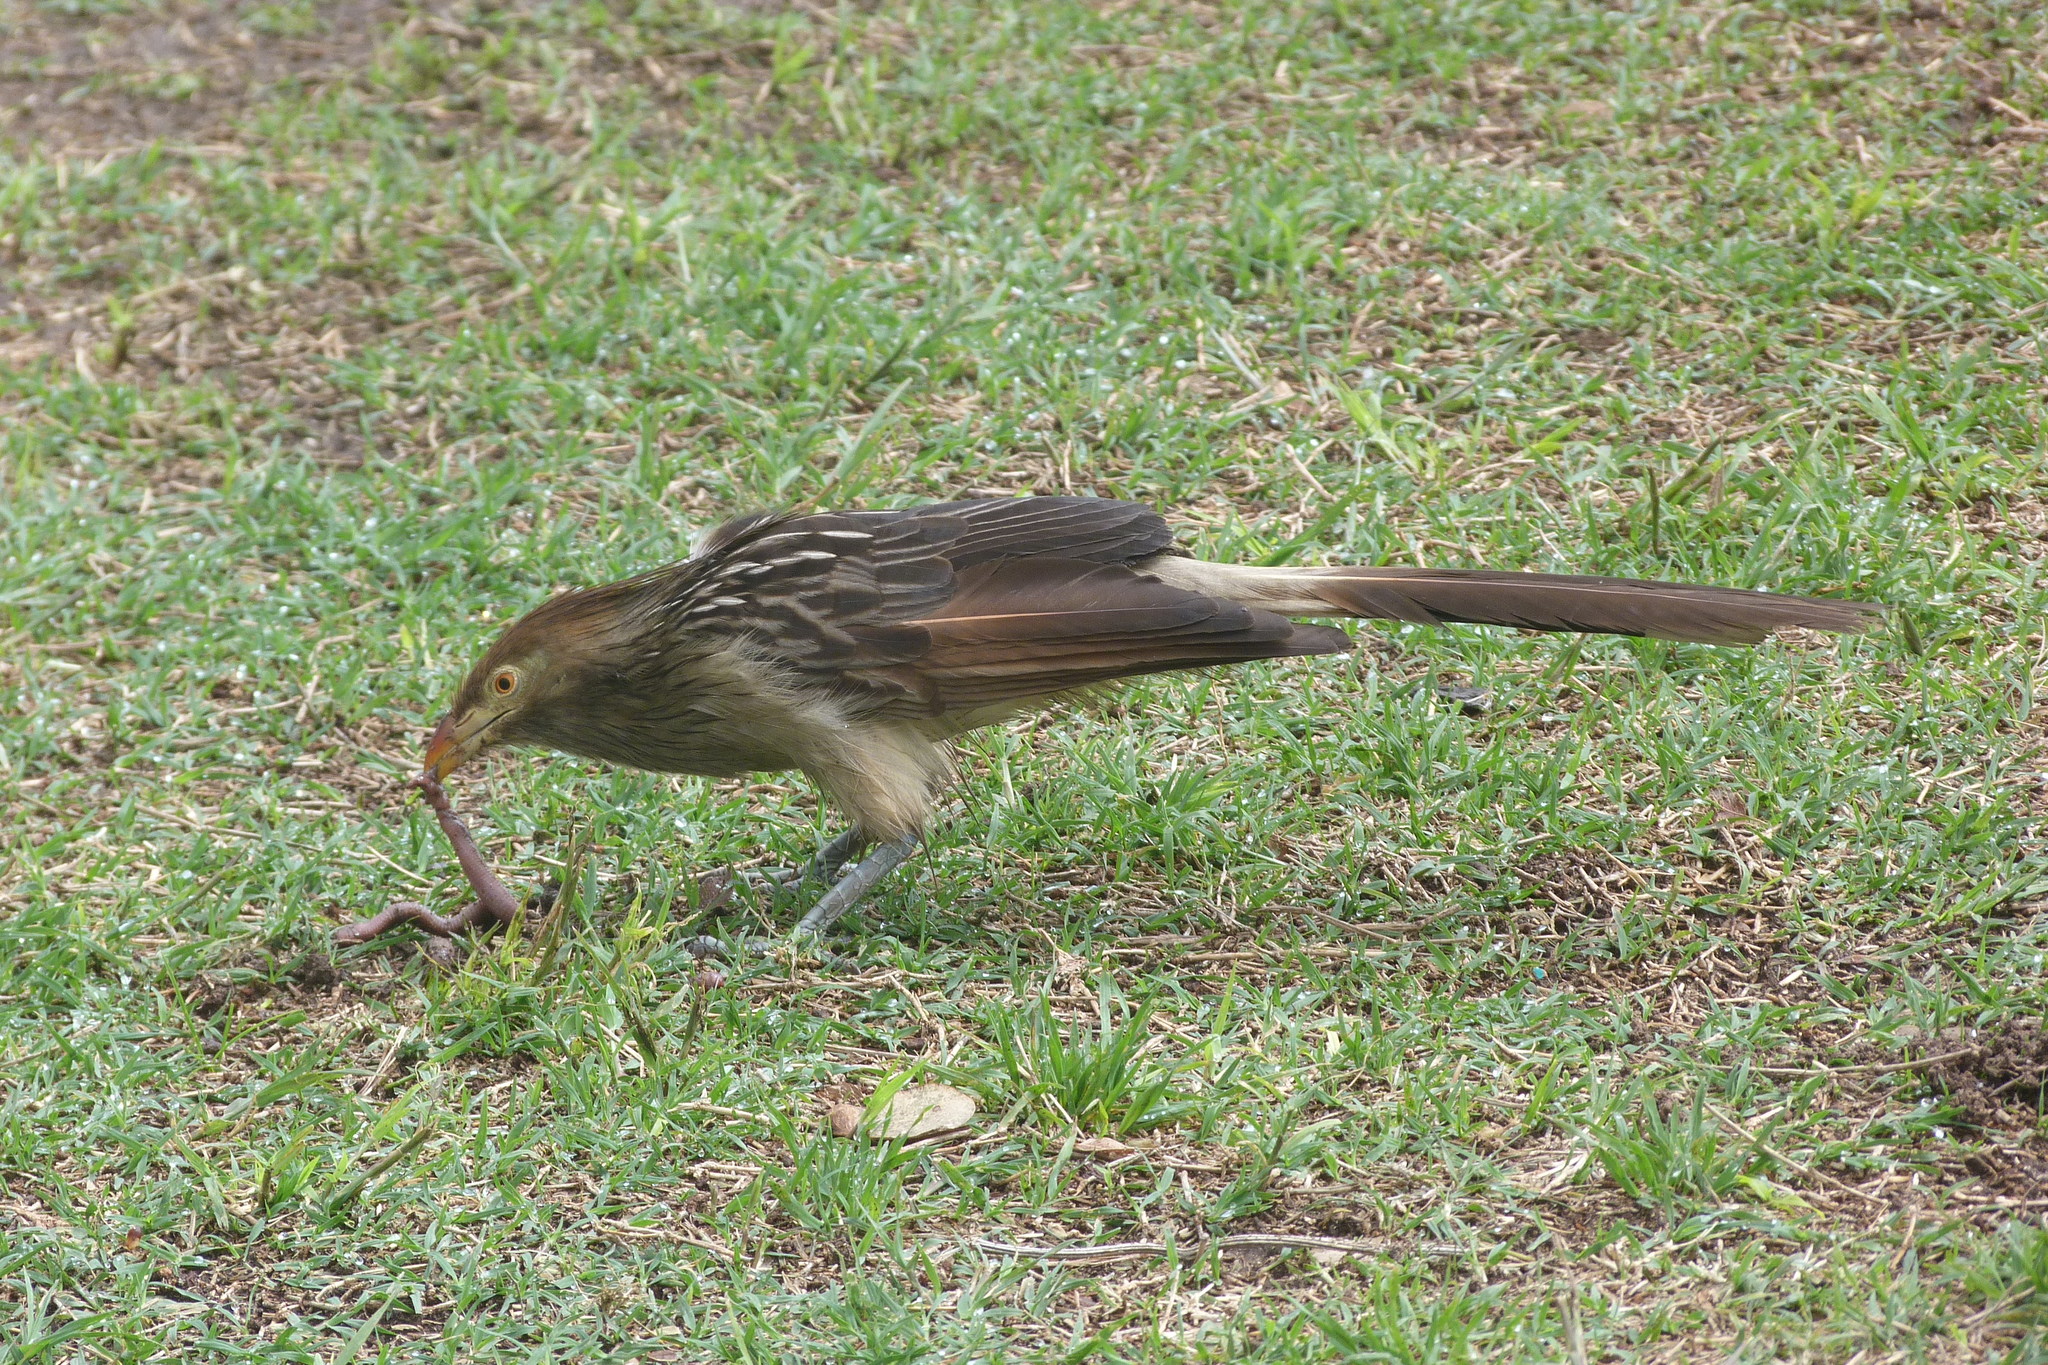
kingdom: Animalia
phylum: Chordata
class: Aves
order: Cuculiformes
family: Cuculidae
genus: Guira
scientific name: Guira guira
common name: Guira cuckoo
